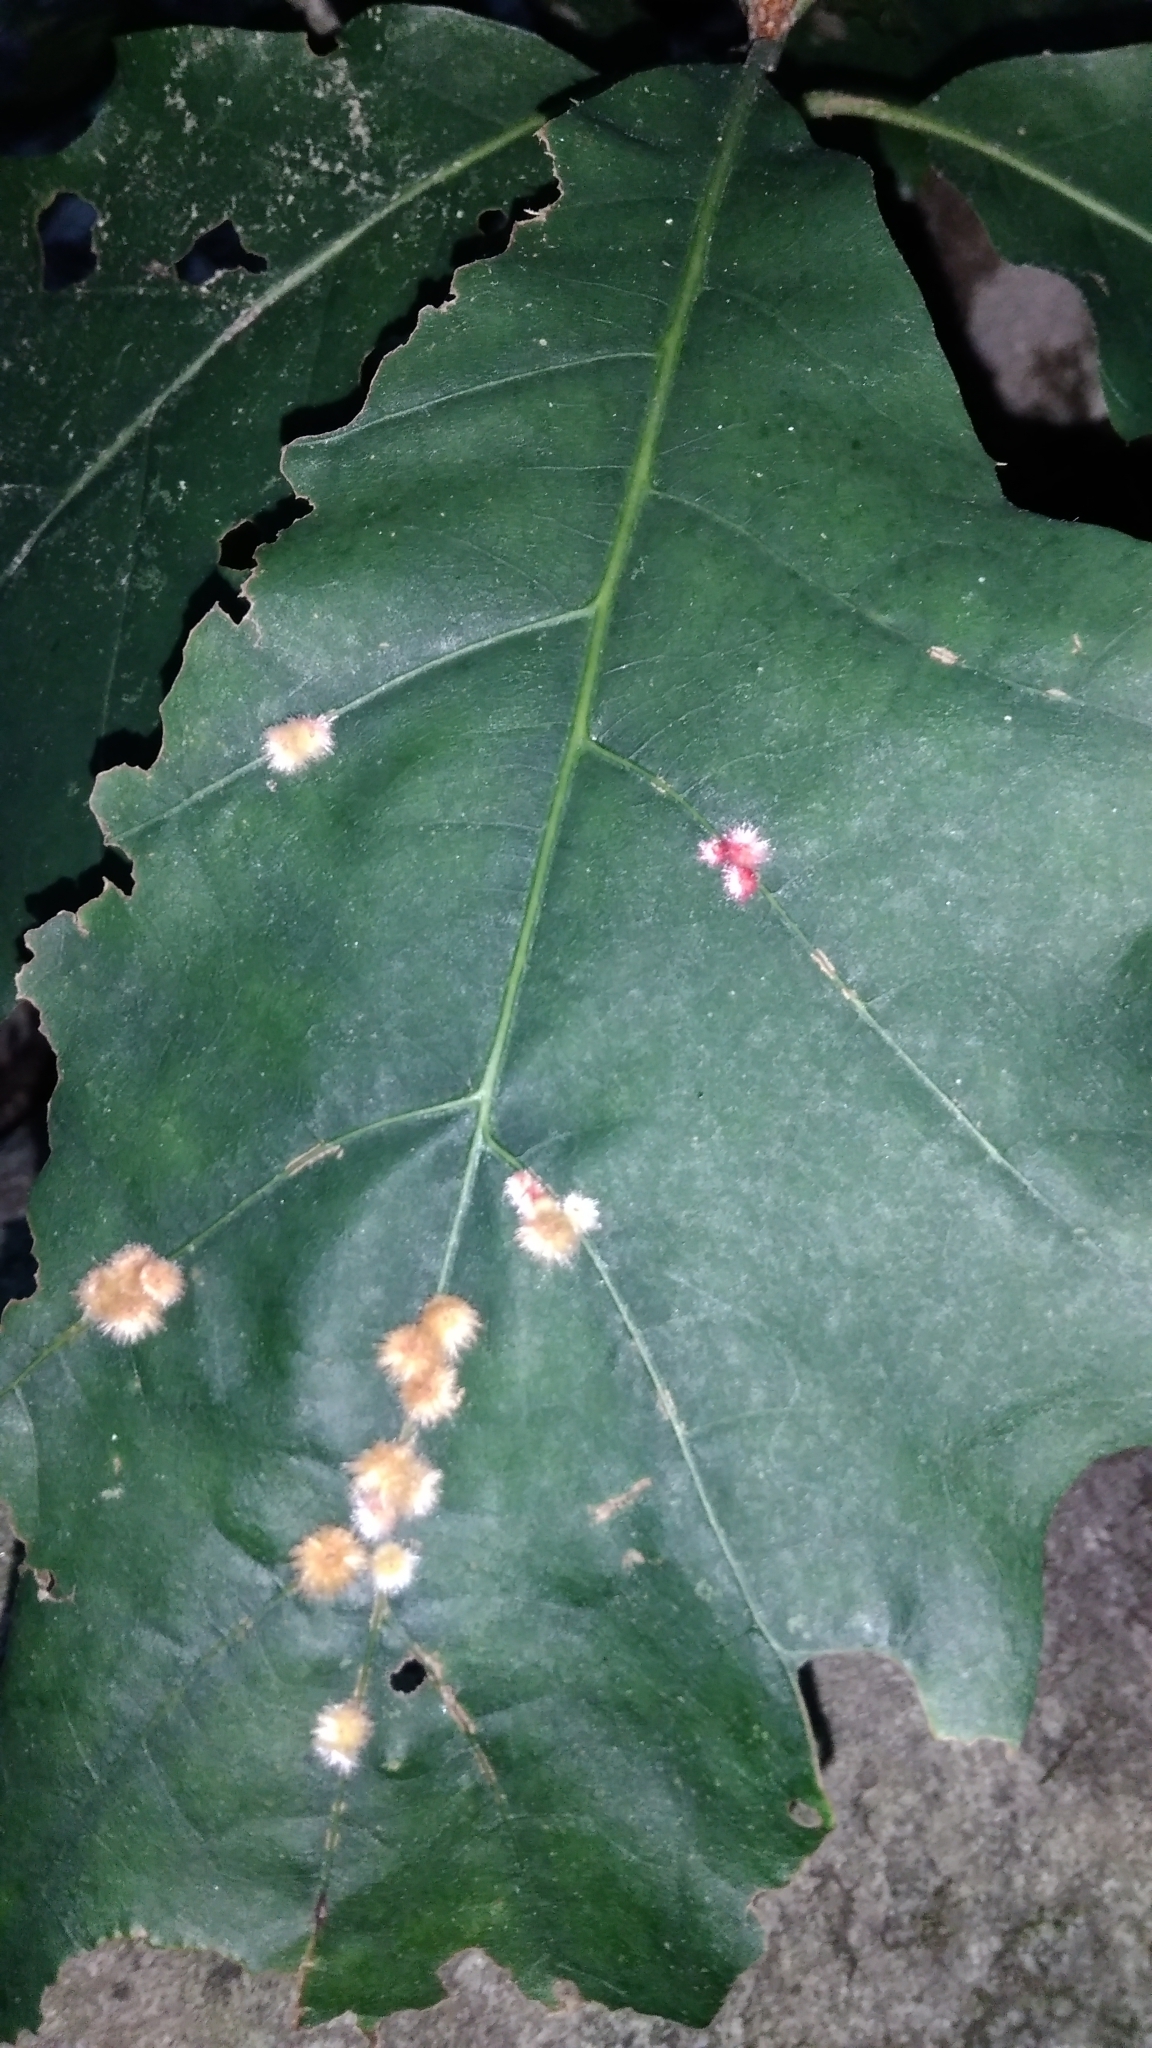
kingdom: Animalia
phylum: Arthropoda
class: Insecta
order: Hymenoptera
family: Cynipidae
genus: Callirhytis
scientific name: Callirhytis
